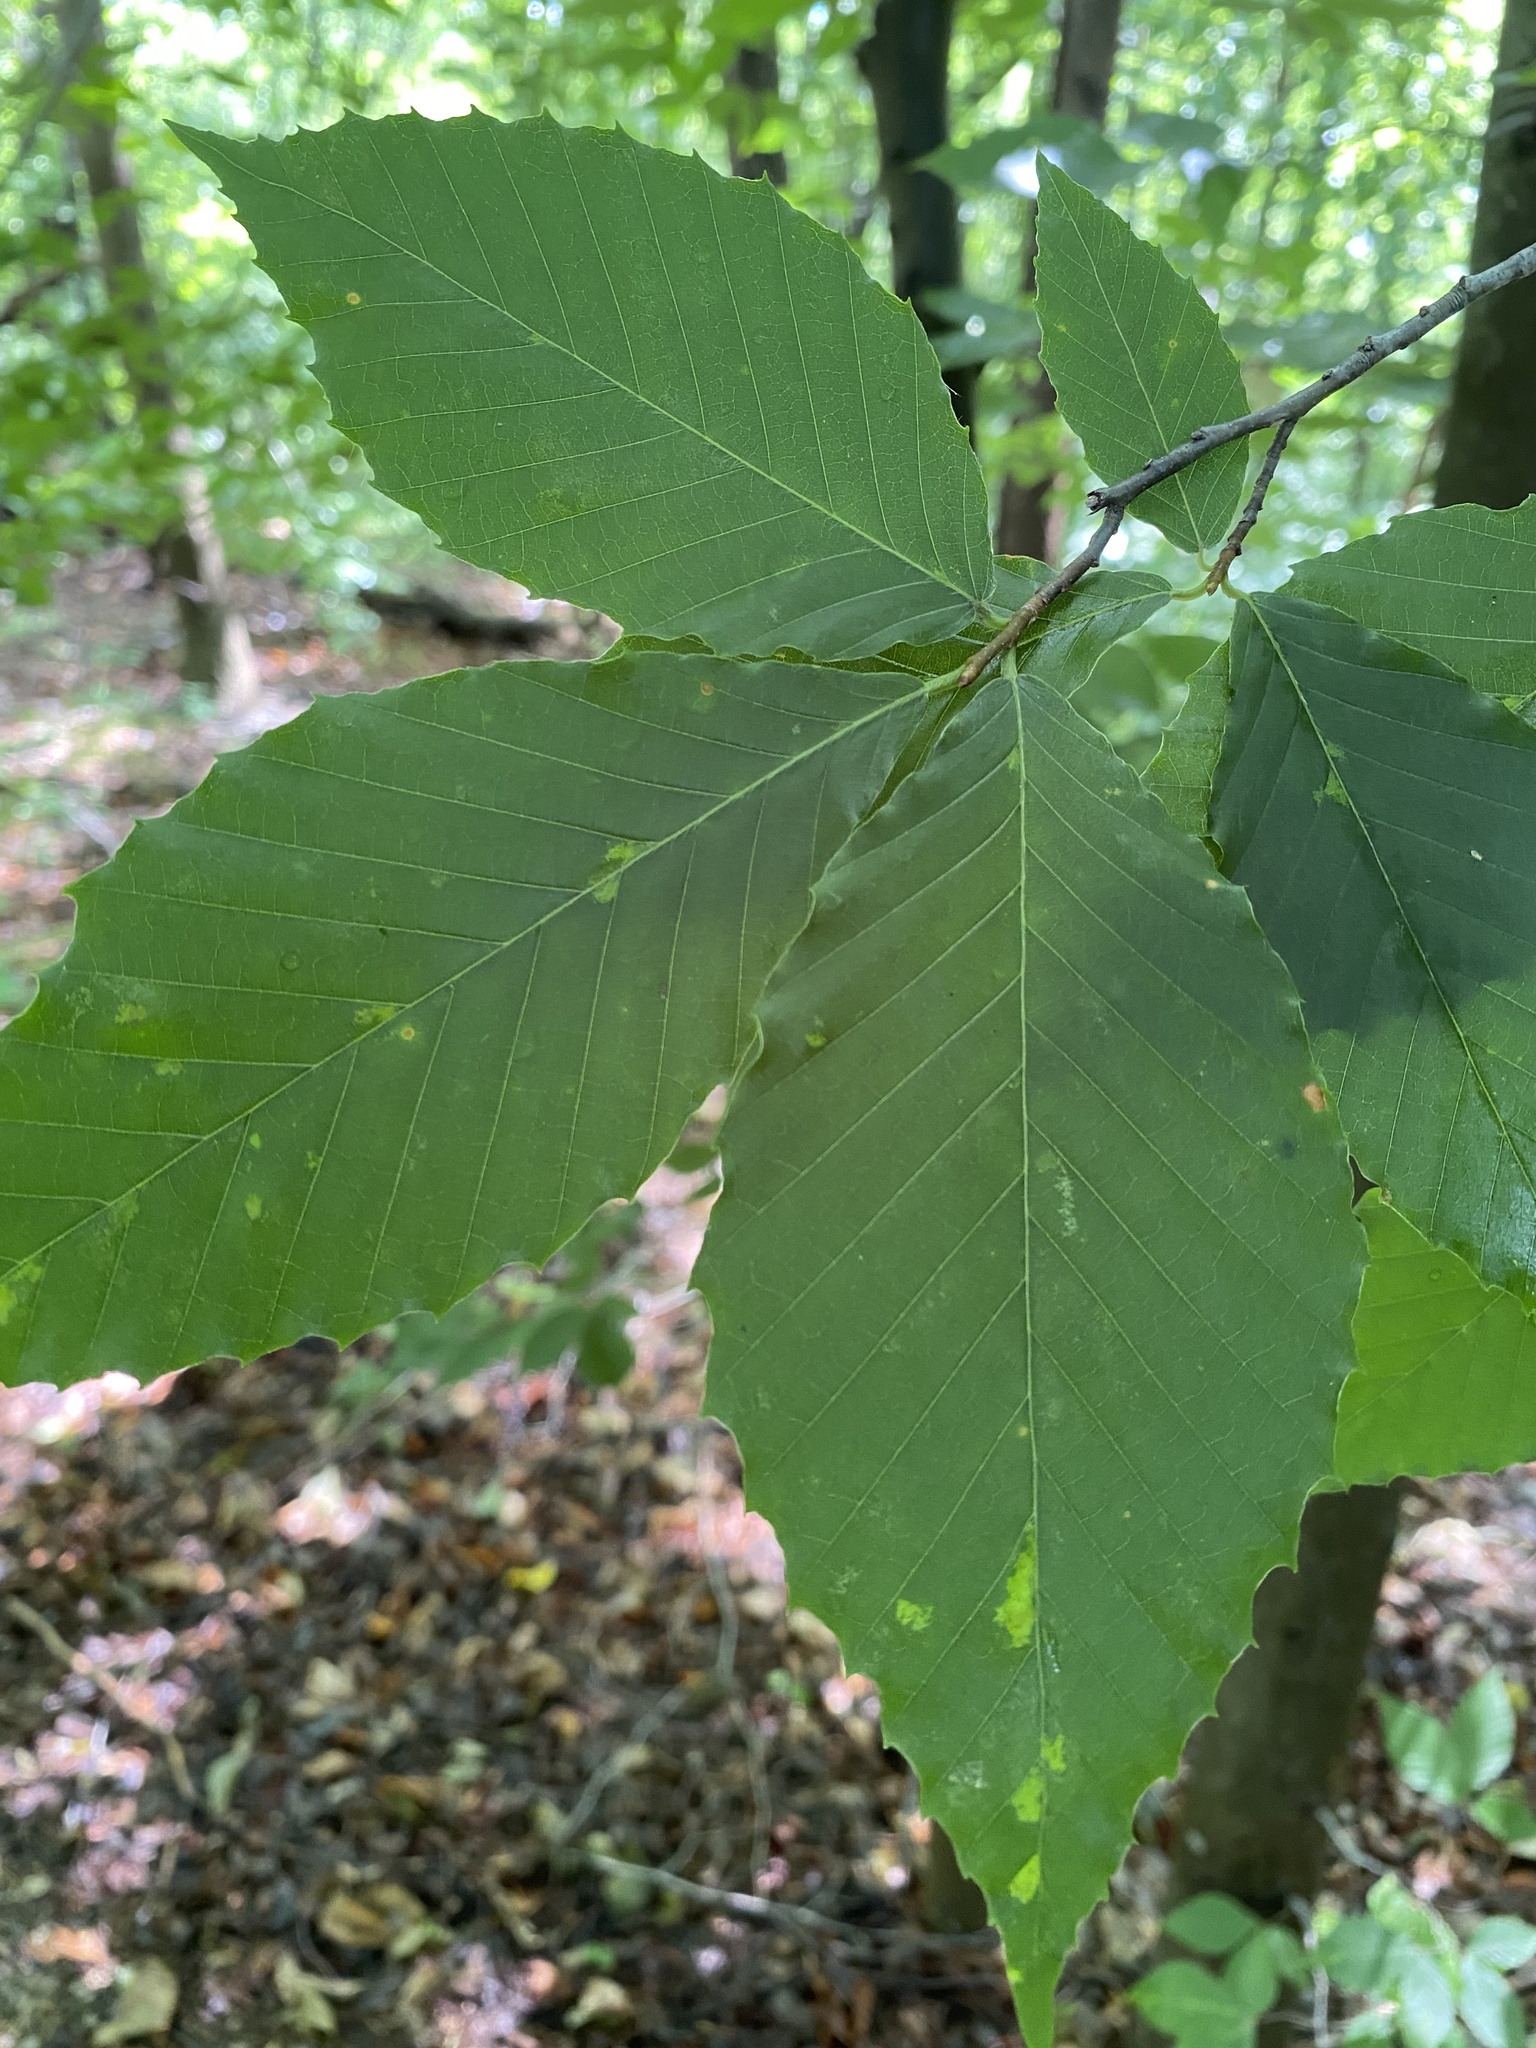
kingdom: Plantae
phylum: Tracheophyta
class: Magnoliopsida
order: Fagales
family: Fagaceae
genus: Fagus
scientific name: Fagus grandifolia
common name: American beech
